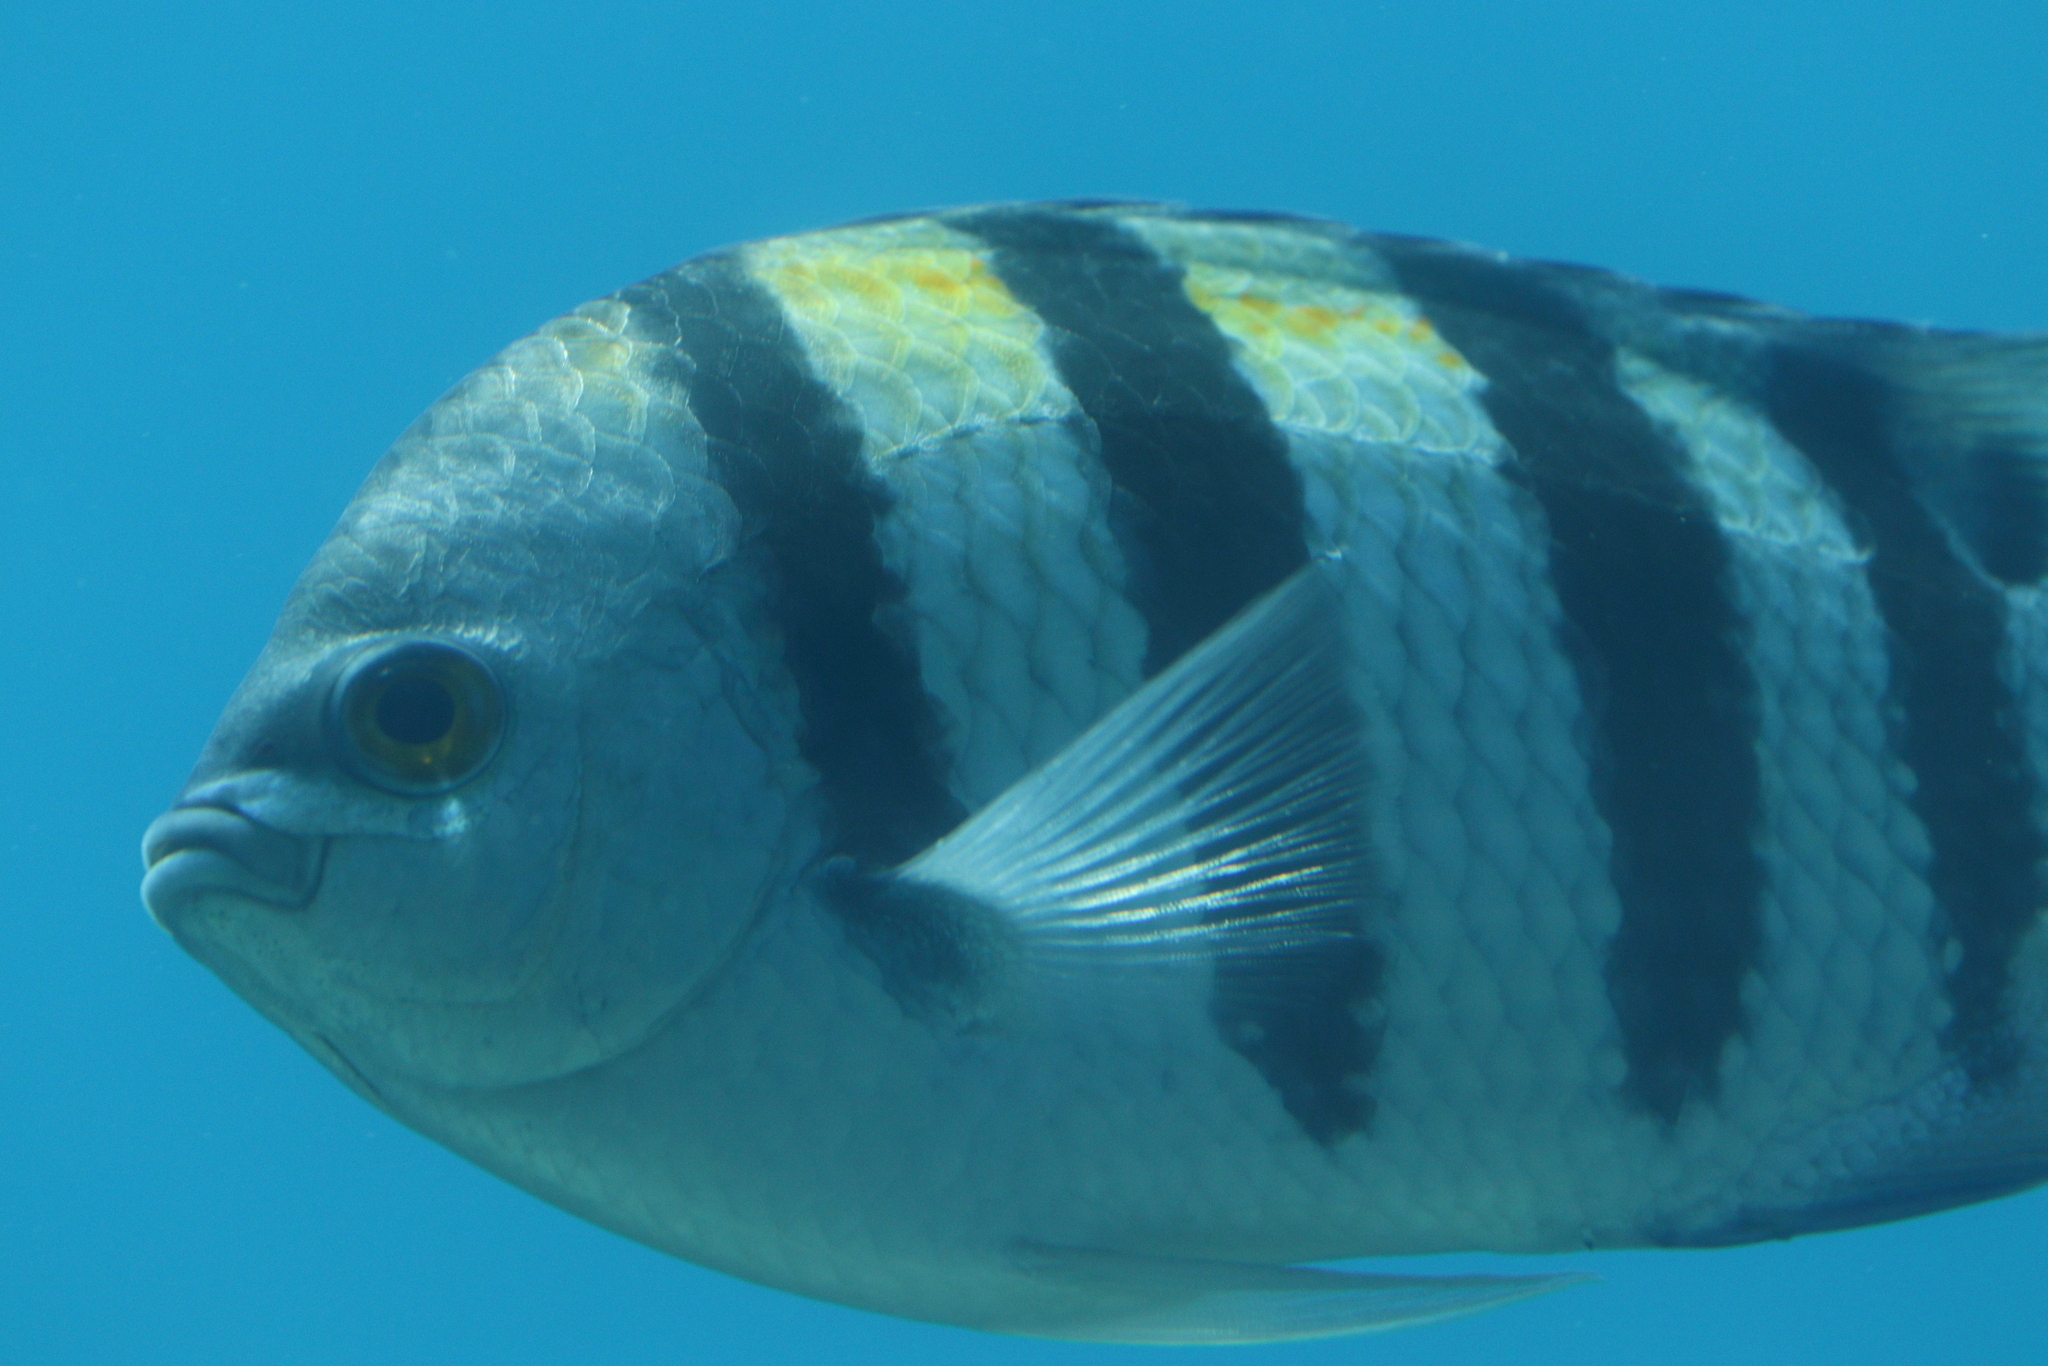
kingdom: Animalia
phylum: Chordata
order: Perciformes
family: Pomacentridae
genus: Abudefduf
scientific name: Abudefduf vaigiensis
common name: Indo-pacific sergeant
